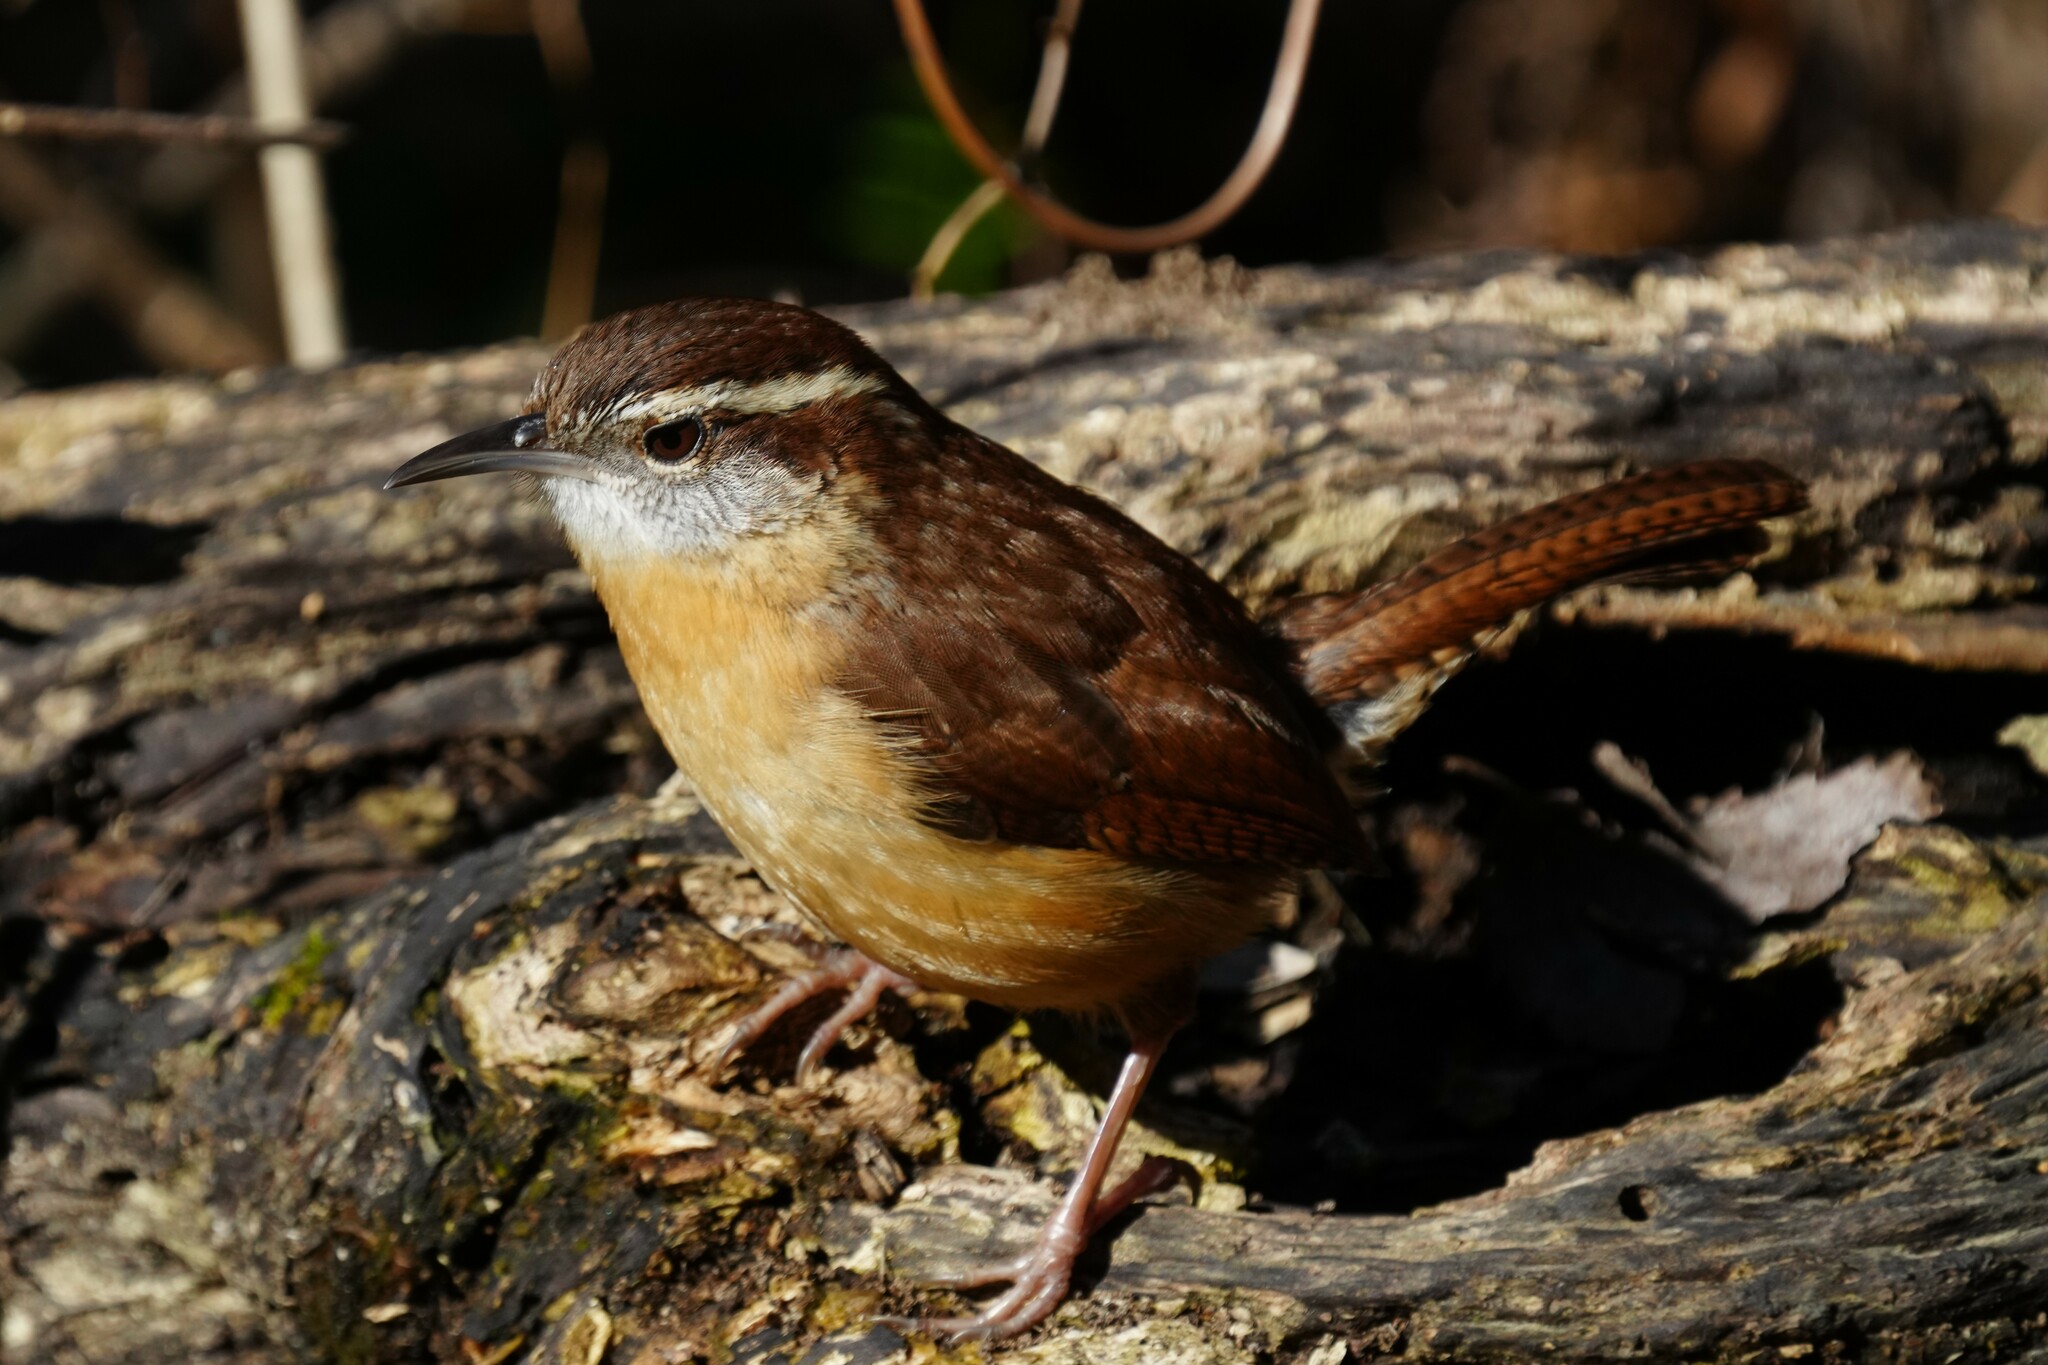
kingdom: Animalia
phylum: Chordata
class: Aves
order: Passeriformes
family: Troglodytidae
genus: Thryothorus
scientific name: Thryothorus ludovicianus
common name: Carolina wren
